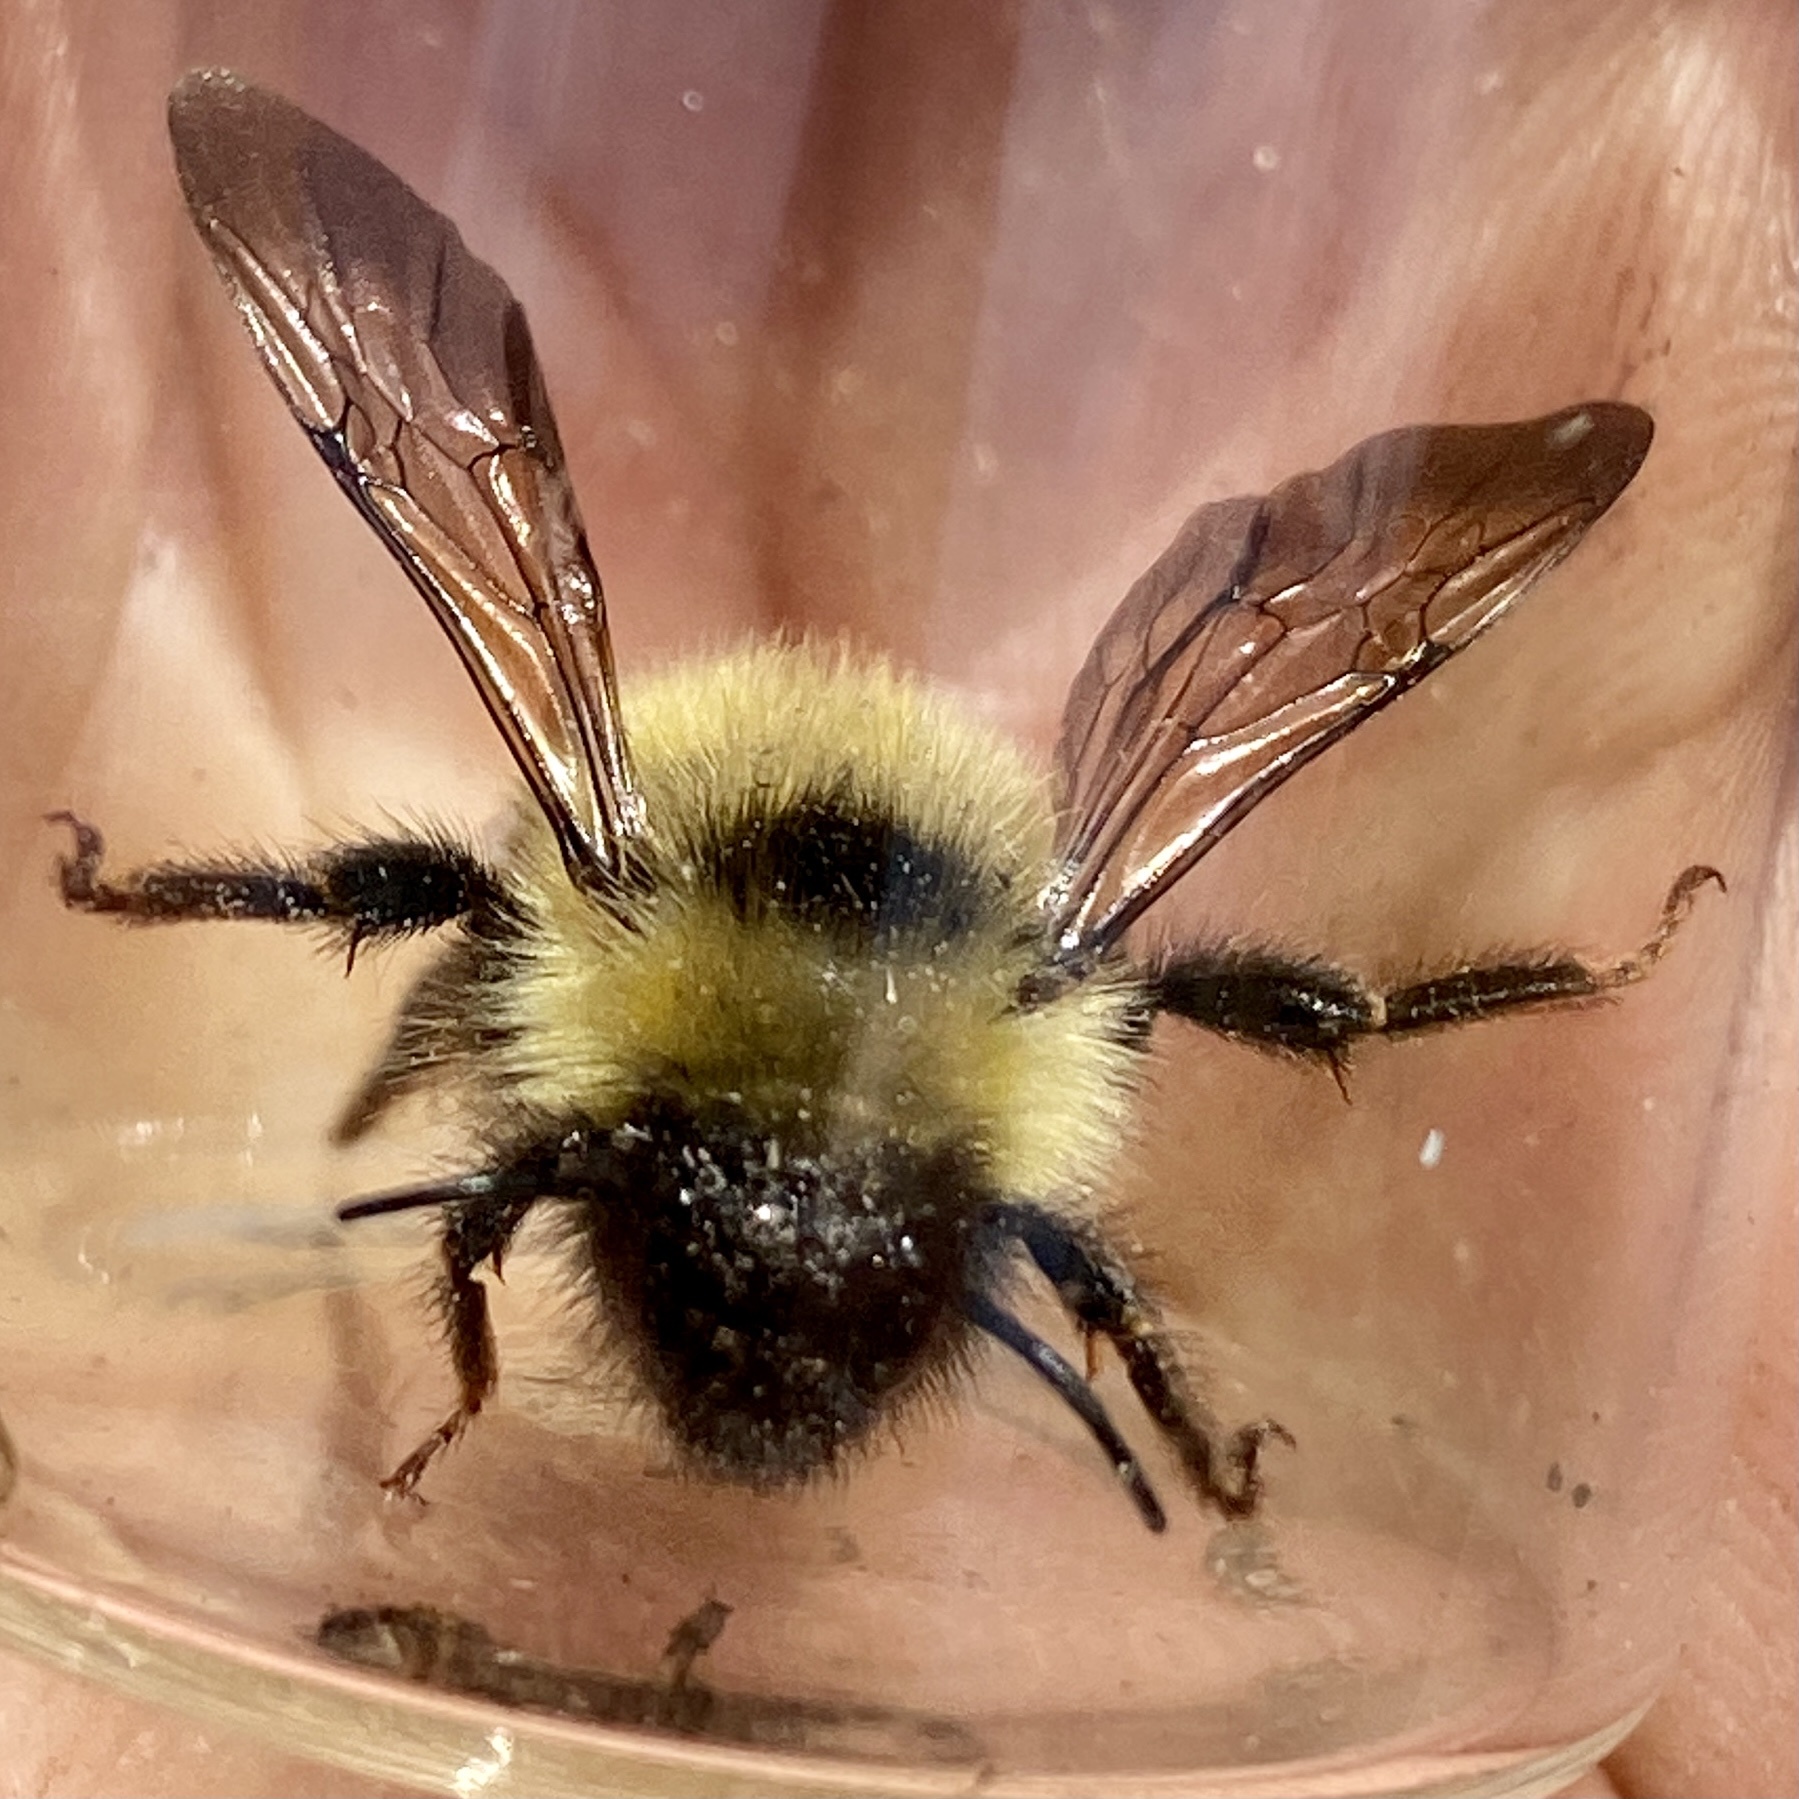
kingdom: Animalia
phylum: Arthropoda
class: Insecta
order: Hymenoptera
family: Apidae
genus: Bombus
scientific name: Bombus flavidus
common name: Fernald cuckoo bumble bee
